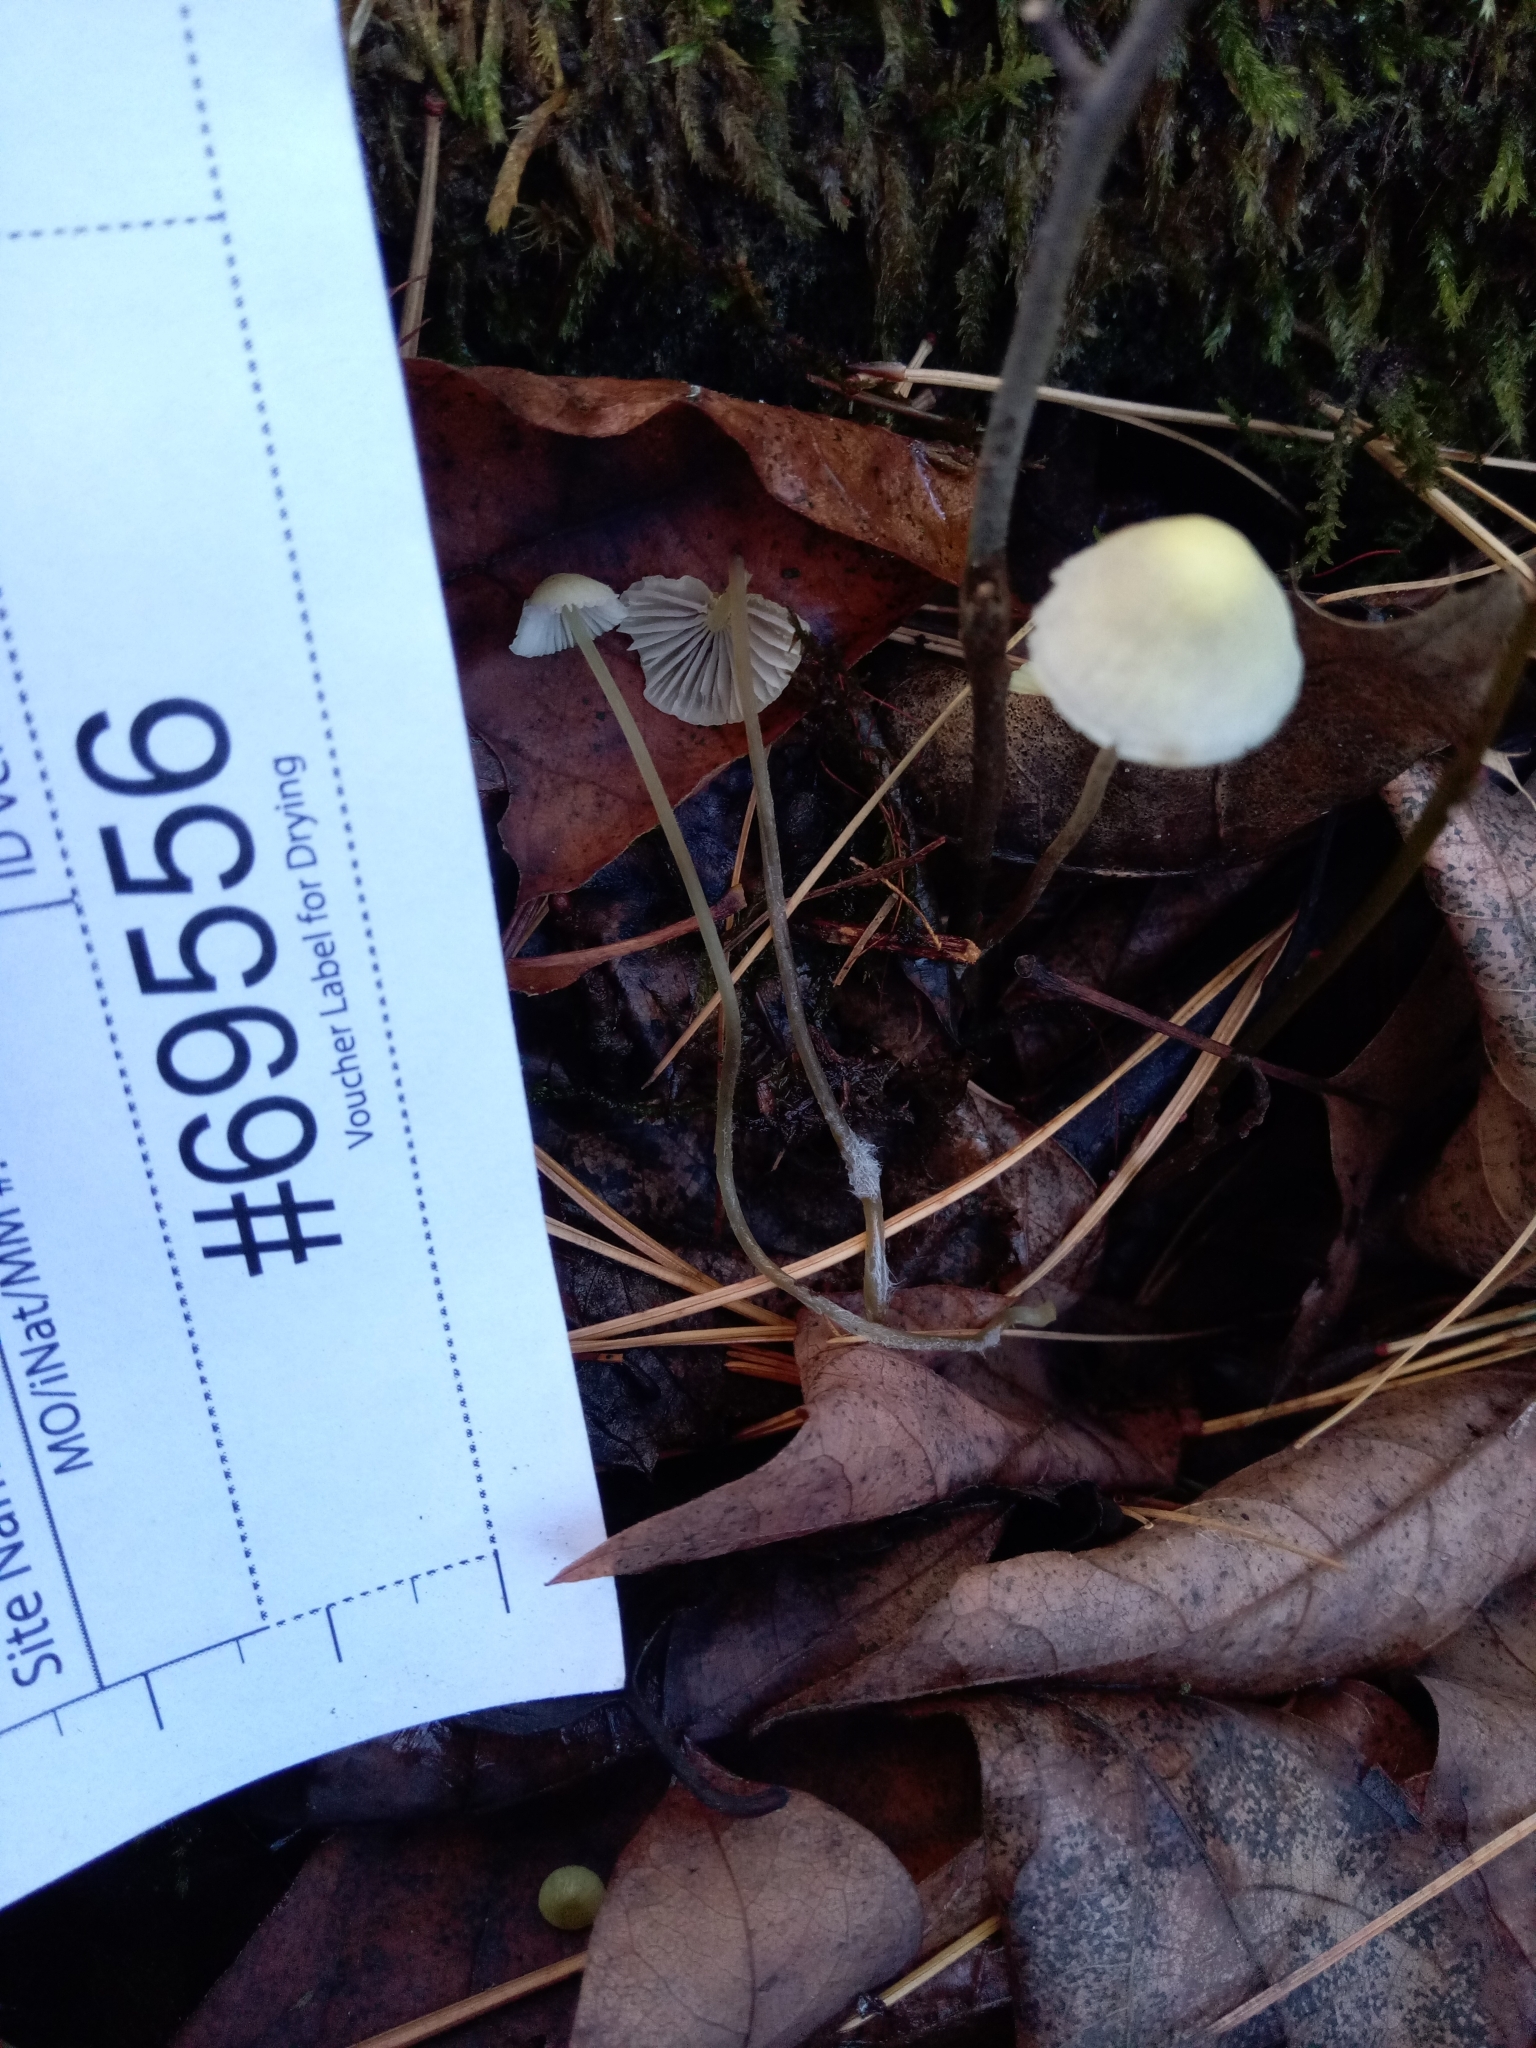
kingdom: Fungi
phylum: Basidiomycota
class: Agaricomycetes
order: Agaricales
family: Mycenaceae
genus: Mycena
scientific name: Mycena citrinomarginata
